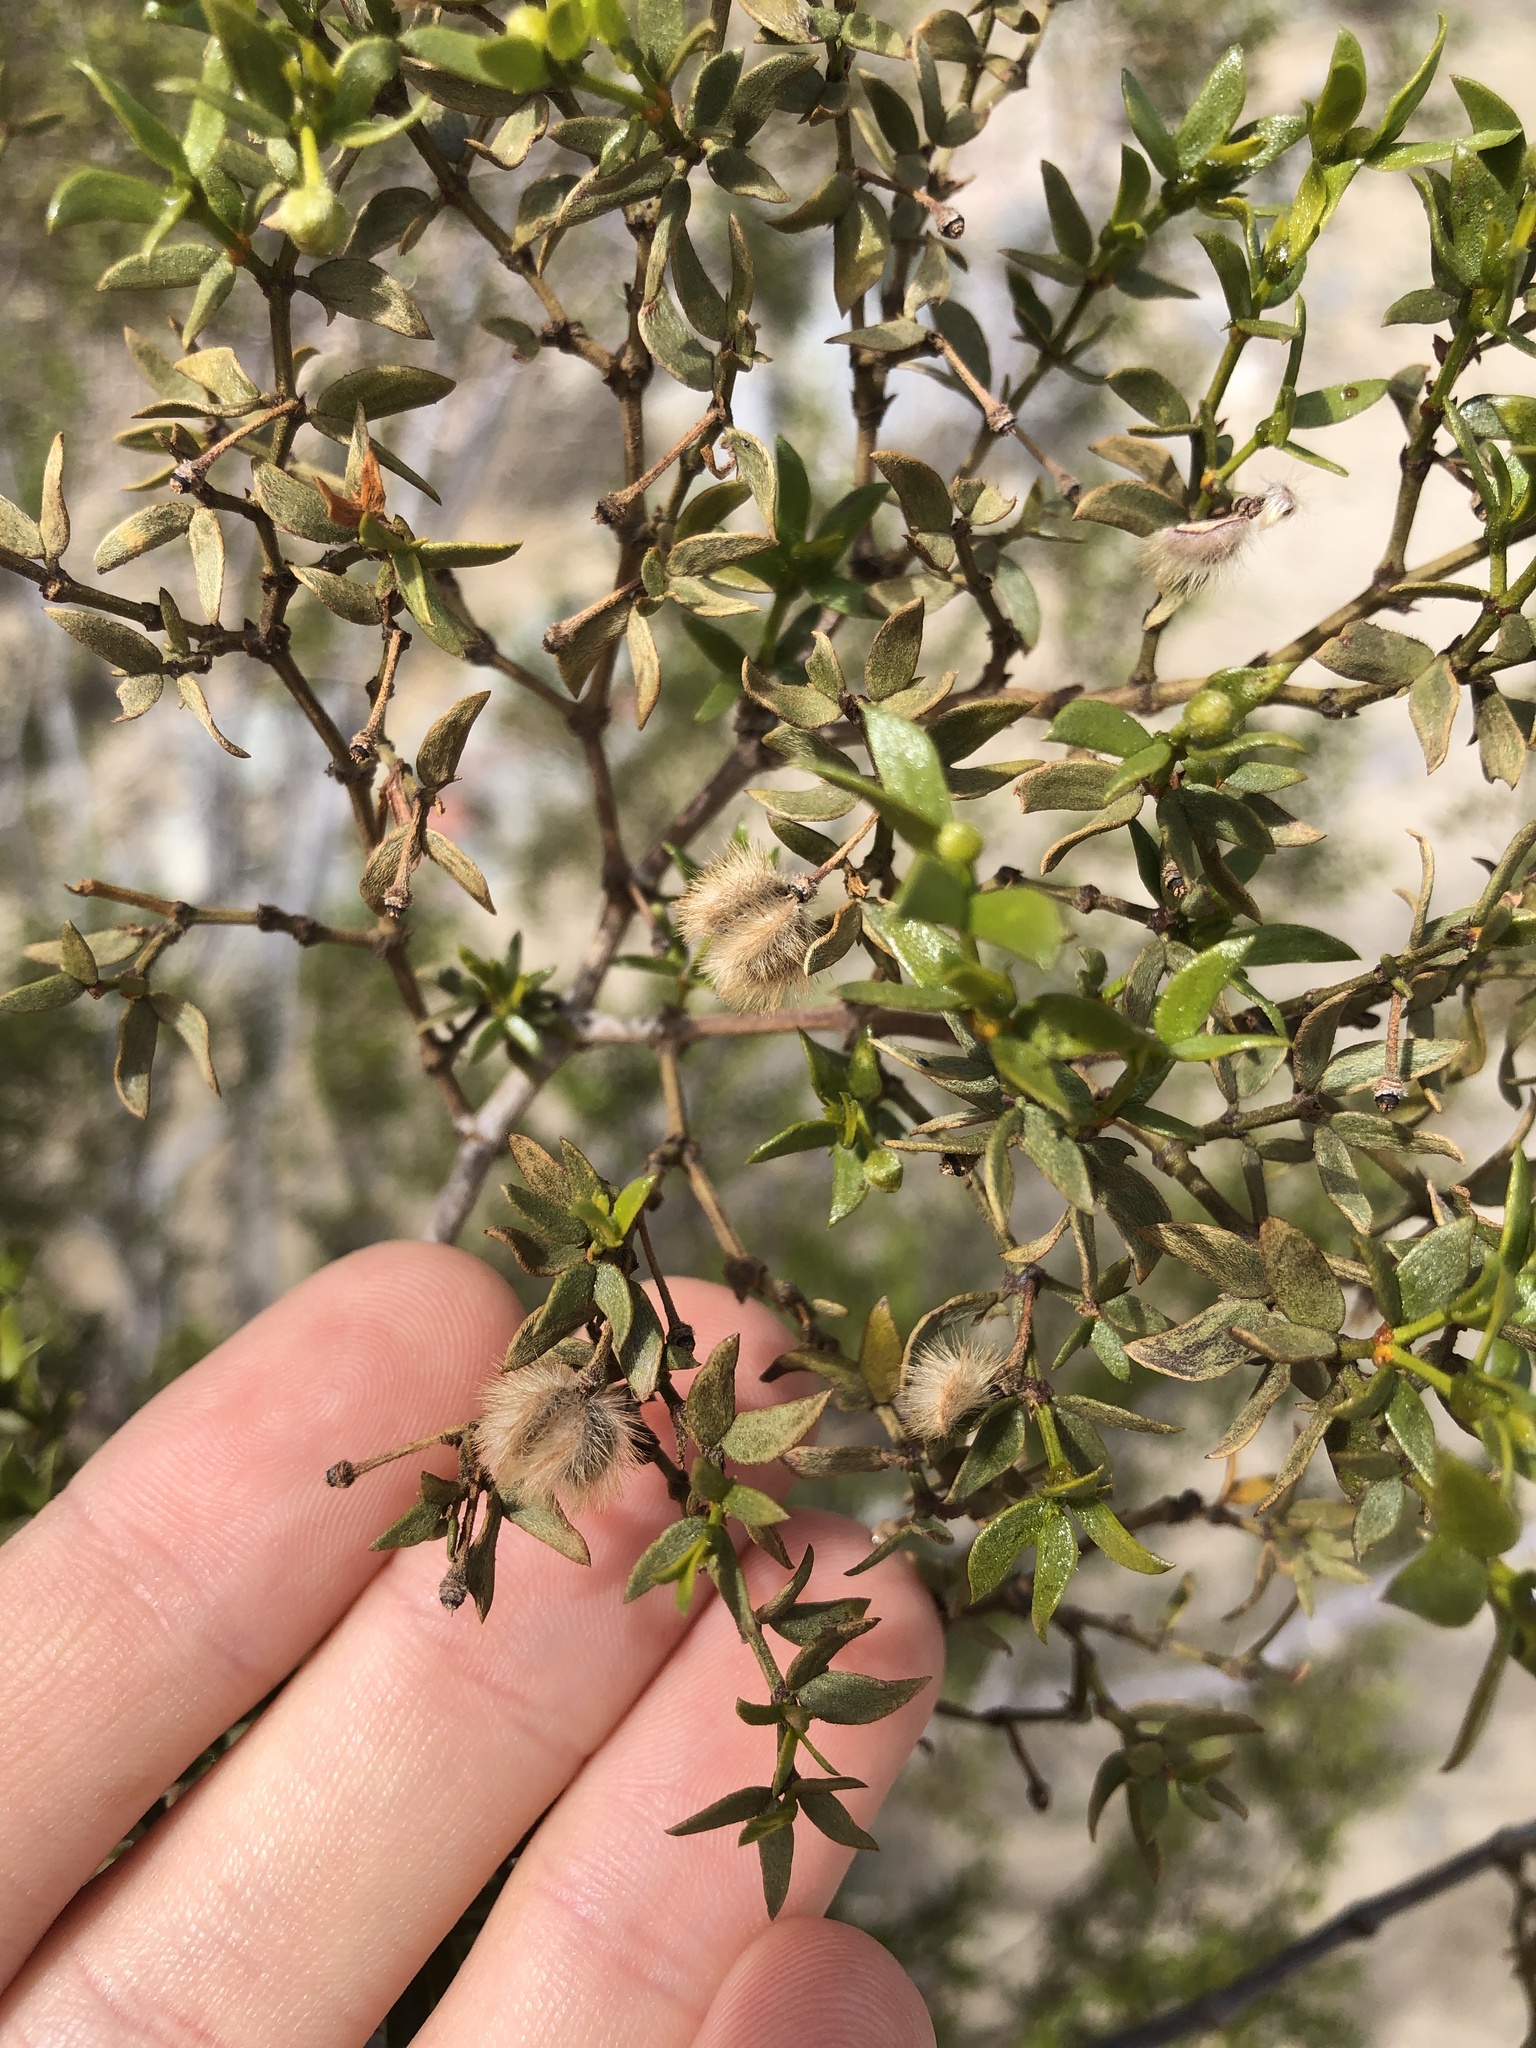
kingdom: Plantae
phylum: Tracheophyta
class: Magnoliopsida
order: Zygophyllales
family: Zygophyllaceae
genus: Larrea
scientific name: Larrea tridentata
